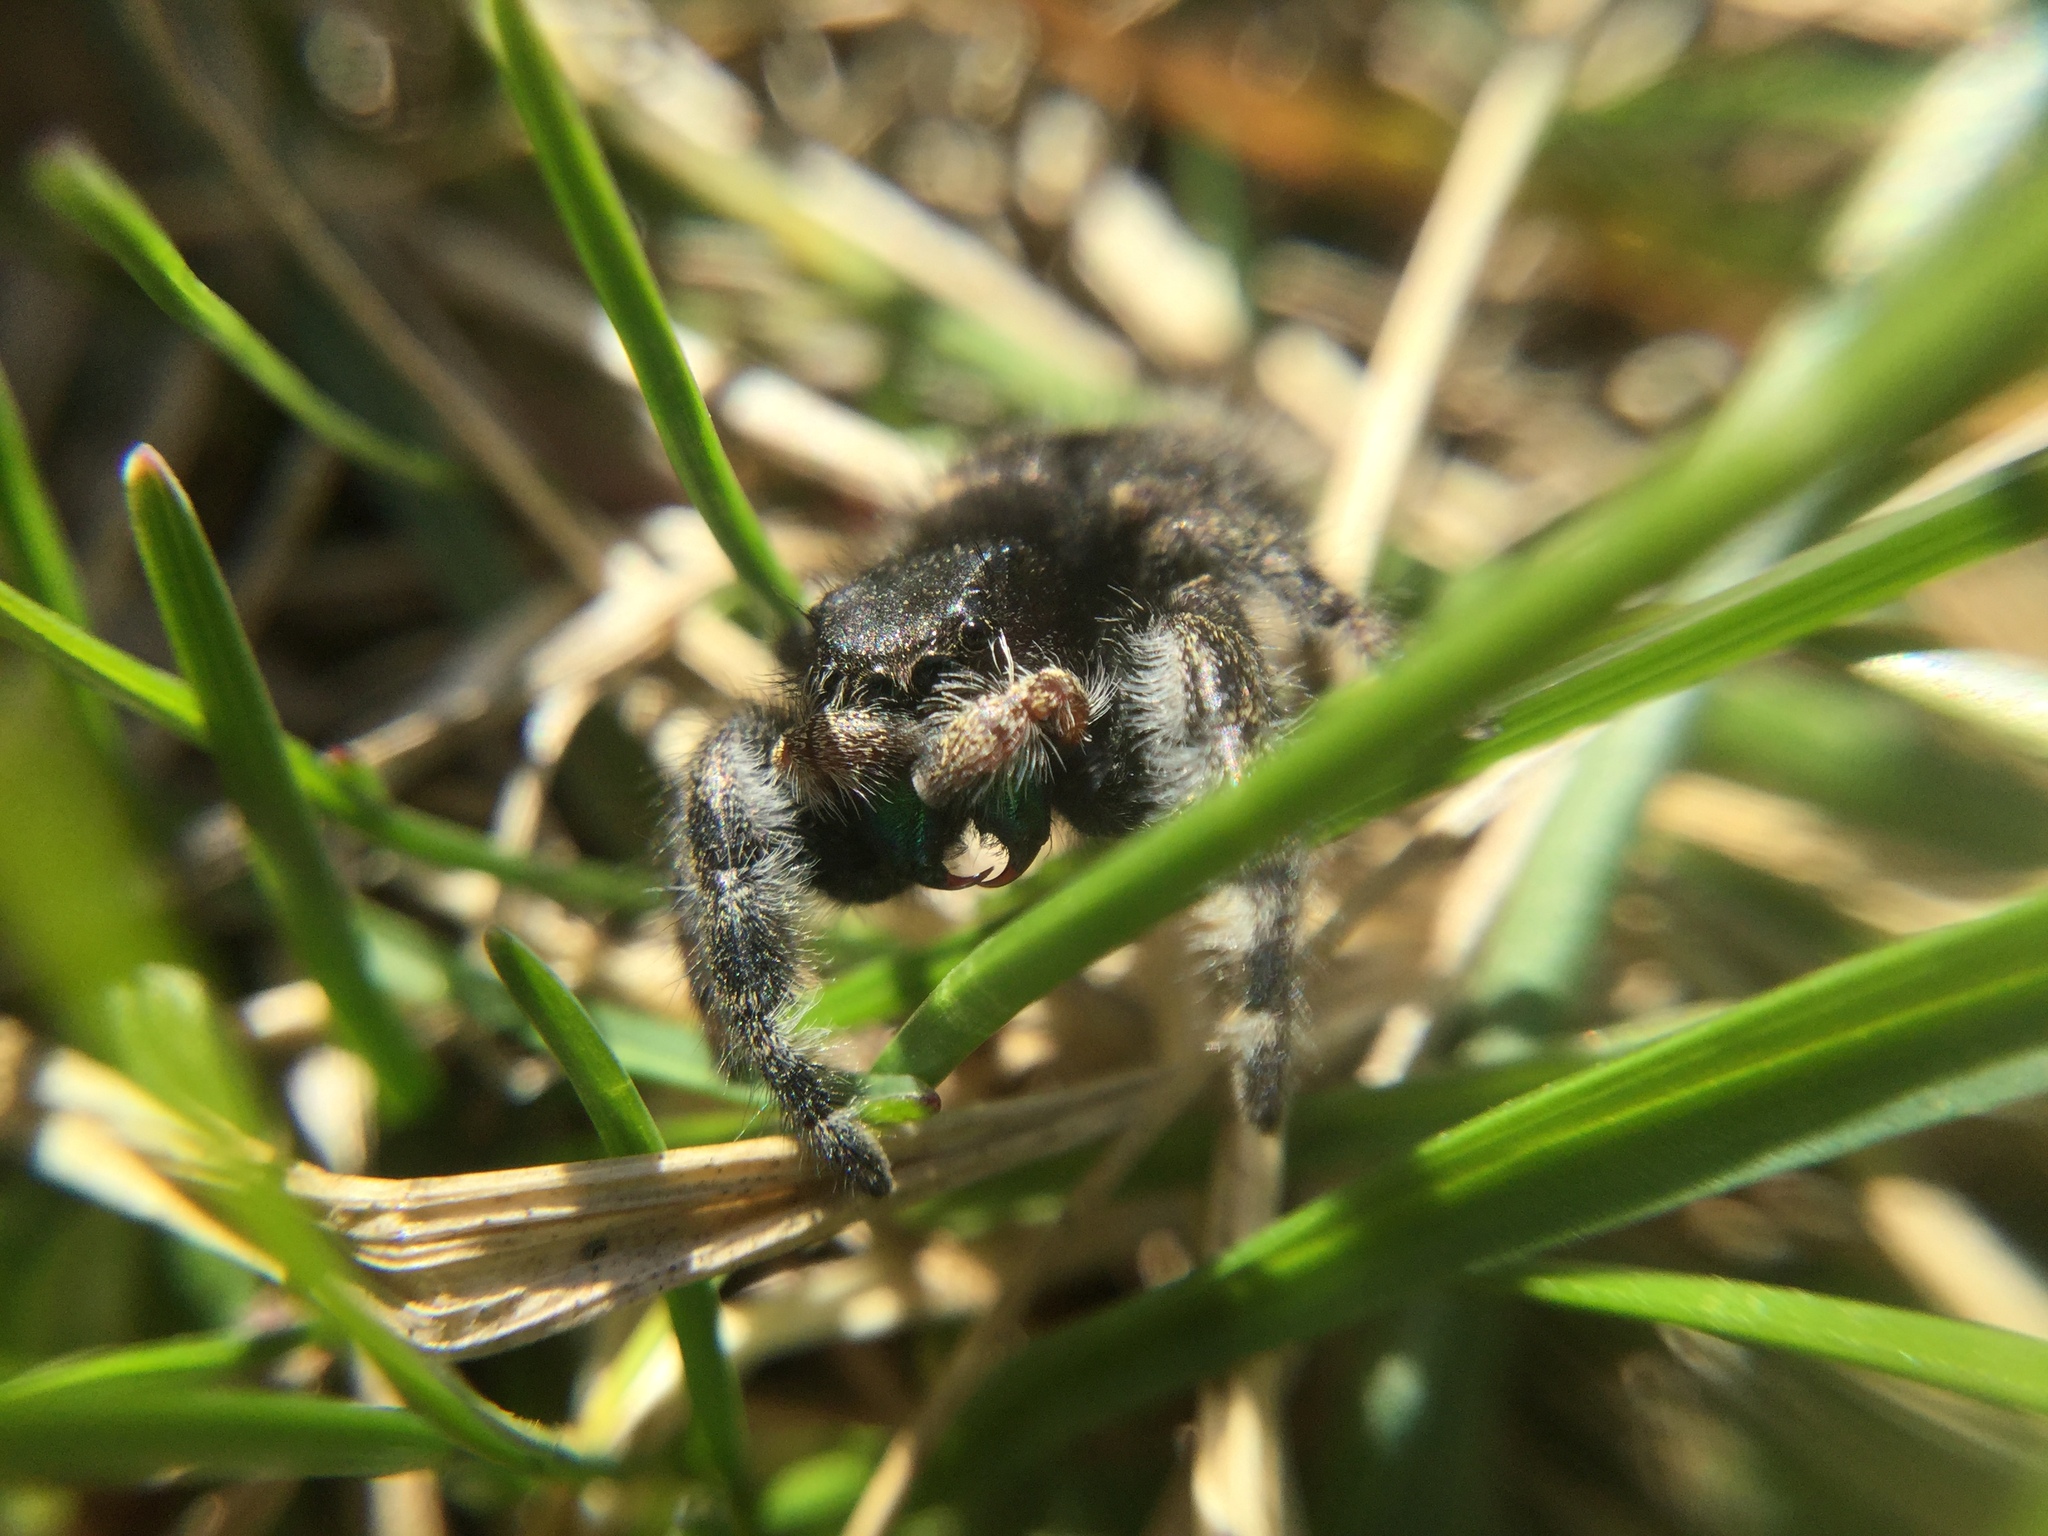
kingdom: Animalia
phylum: Arthropoda
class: Arachnida
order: Araneae
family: Salticidae
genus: Phidippus
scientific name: Phidippus audax
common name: Bold jumper
